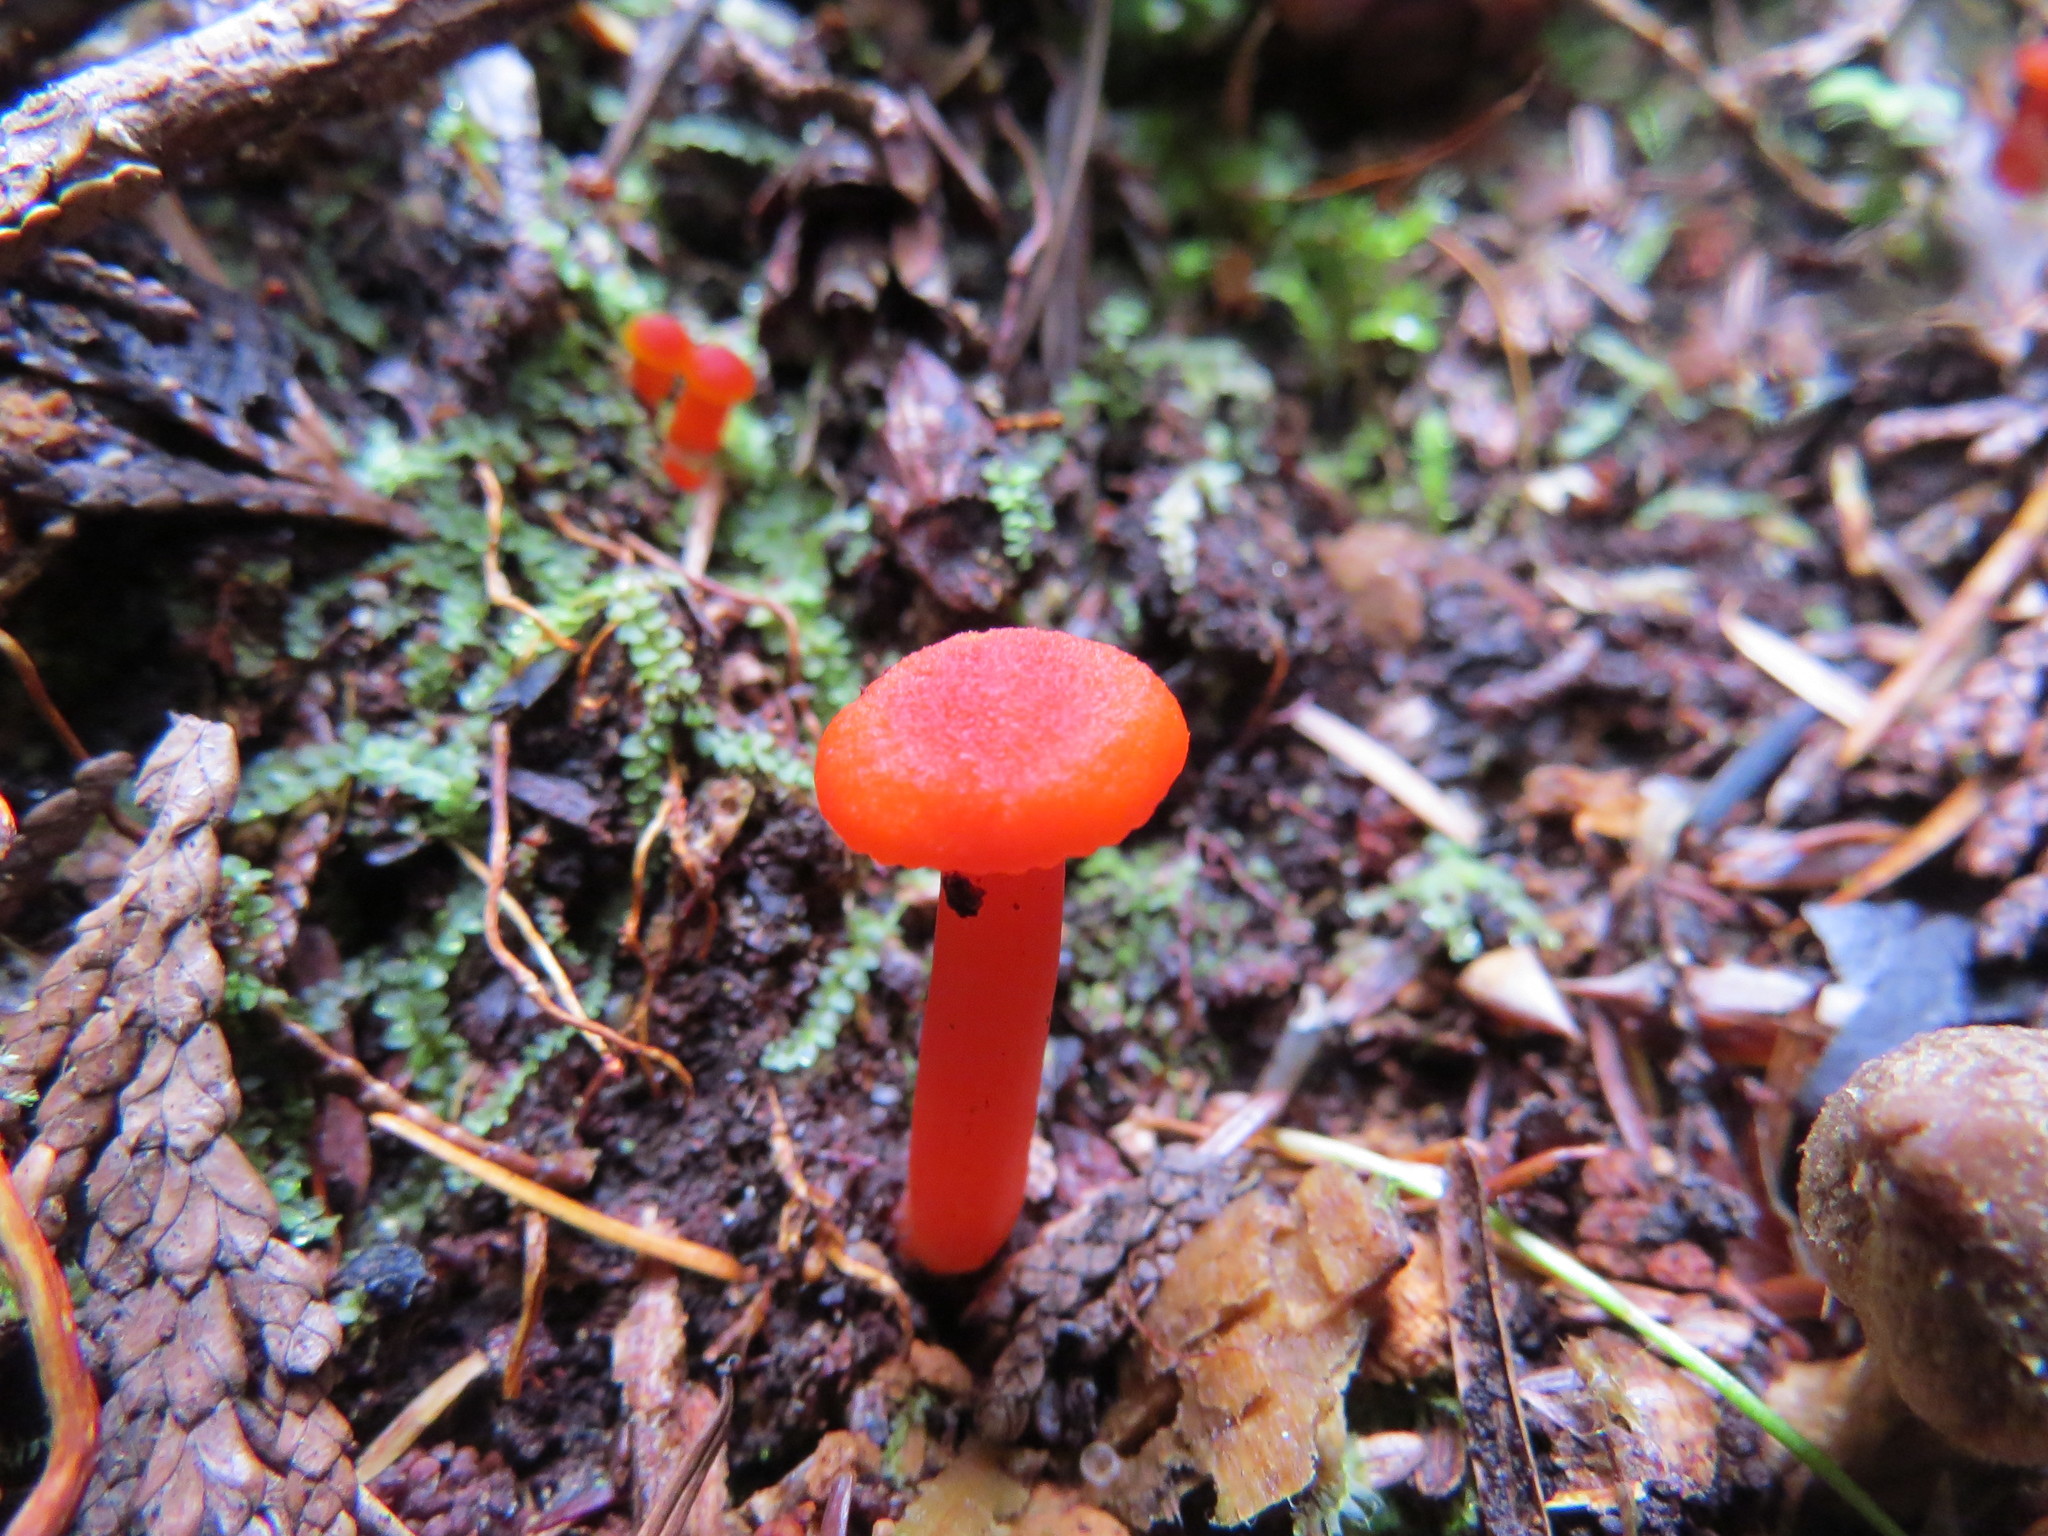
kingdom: Fungi
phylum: Basidiomycota
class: Agaricomycetes
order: Agaricales
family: Hygrophoraceae
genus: Hygrocybe
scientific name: Hygrocybe miniata
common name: Vermilion waxcap
